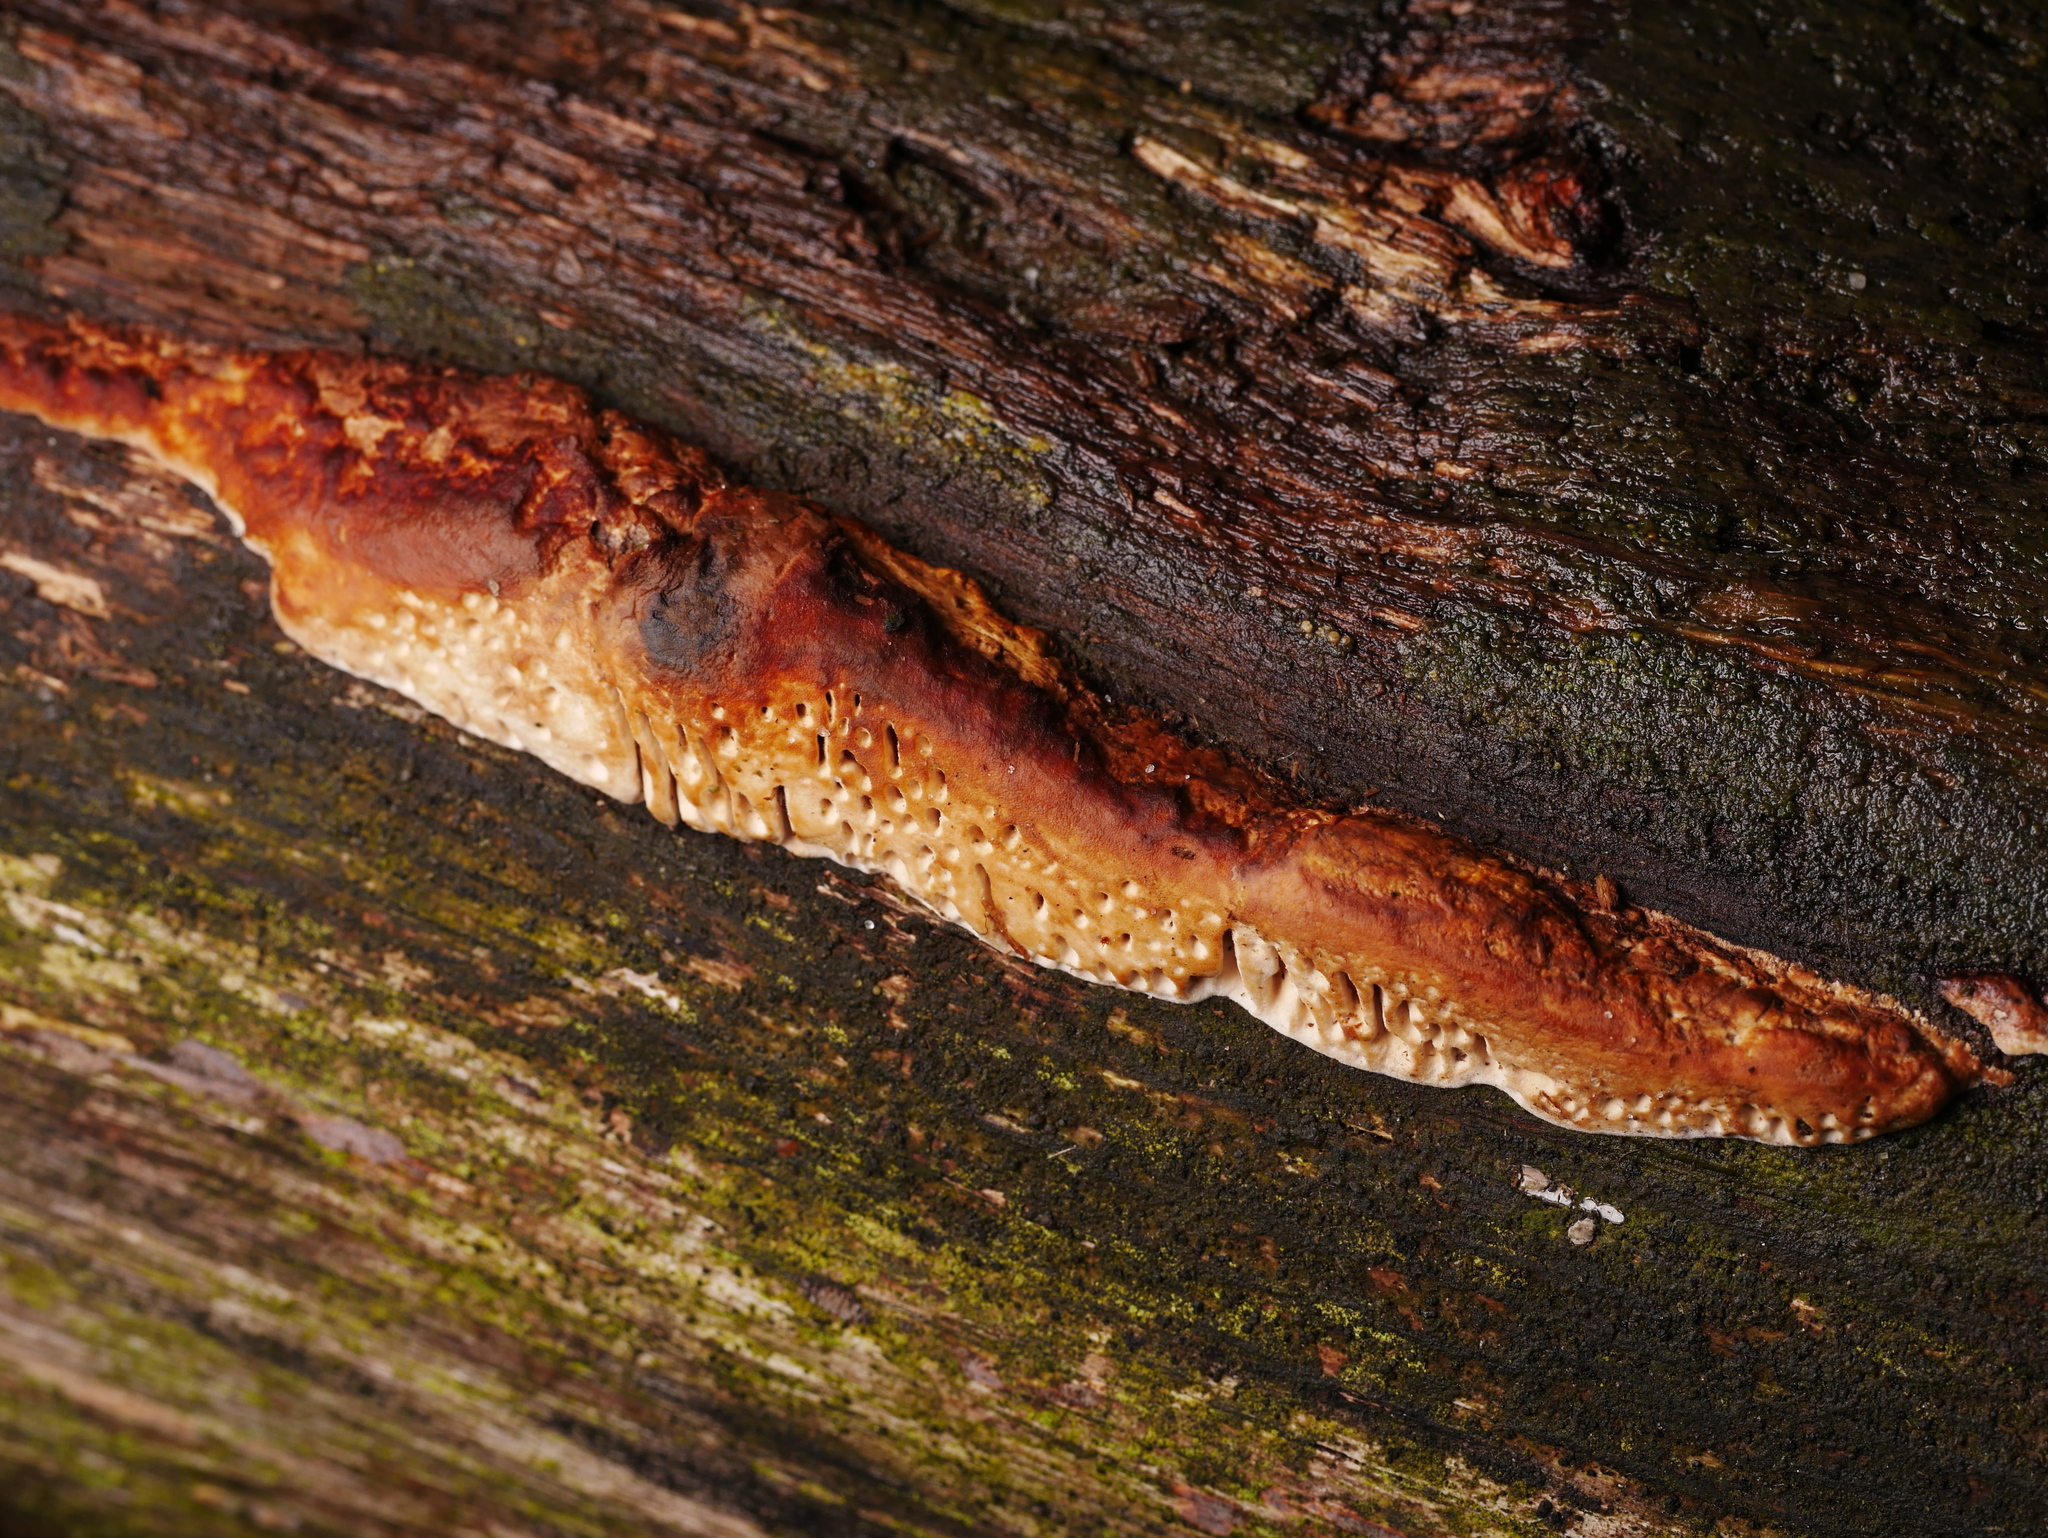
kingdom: Fungi
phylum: Basidiomycota
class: Agaricomycetes
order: Polyporales
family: Fomitopsidaceae
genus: Fomitopsis
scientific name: Fomitopsis
